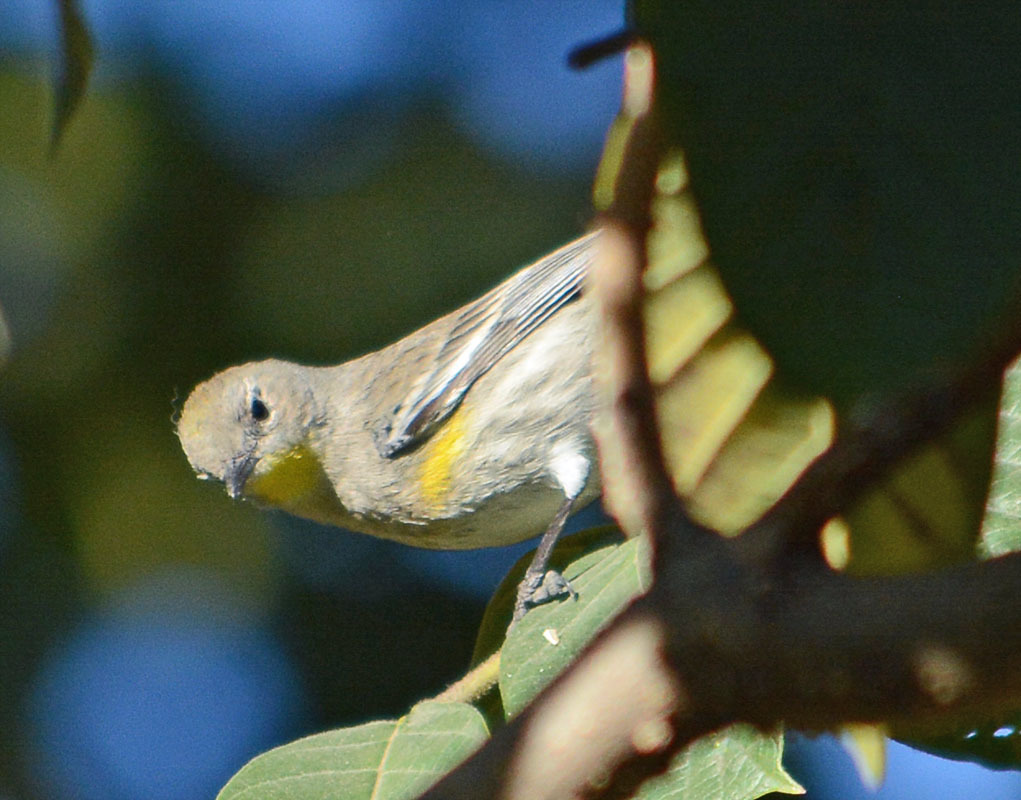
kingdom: Animalia
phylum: Chordata
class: Aves
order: Passeriformes
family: Parulidae
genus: Setophaga
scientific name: Setophaga auduboni
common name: Audubon's warbler
